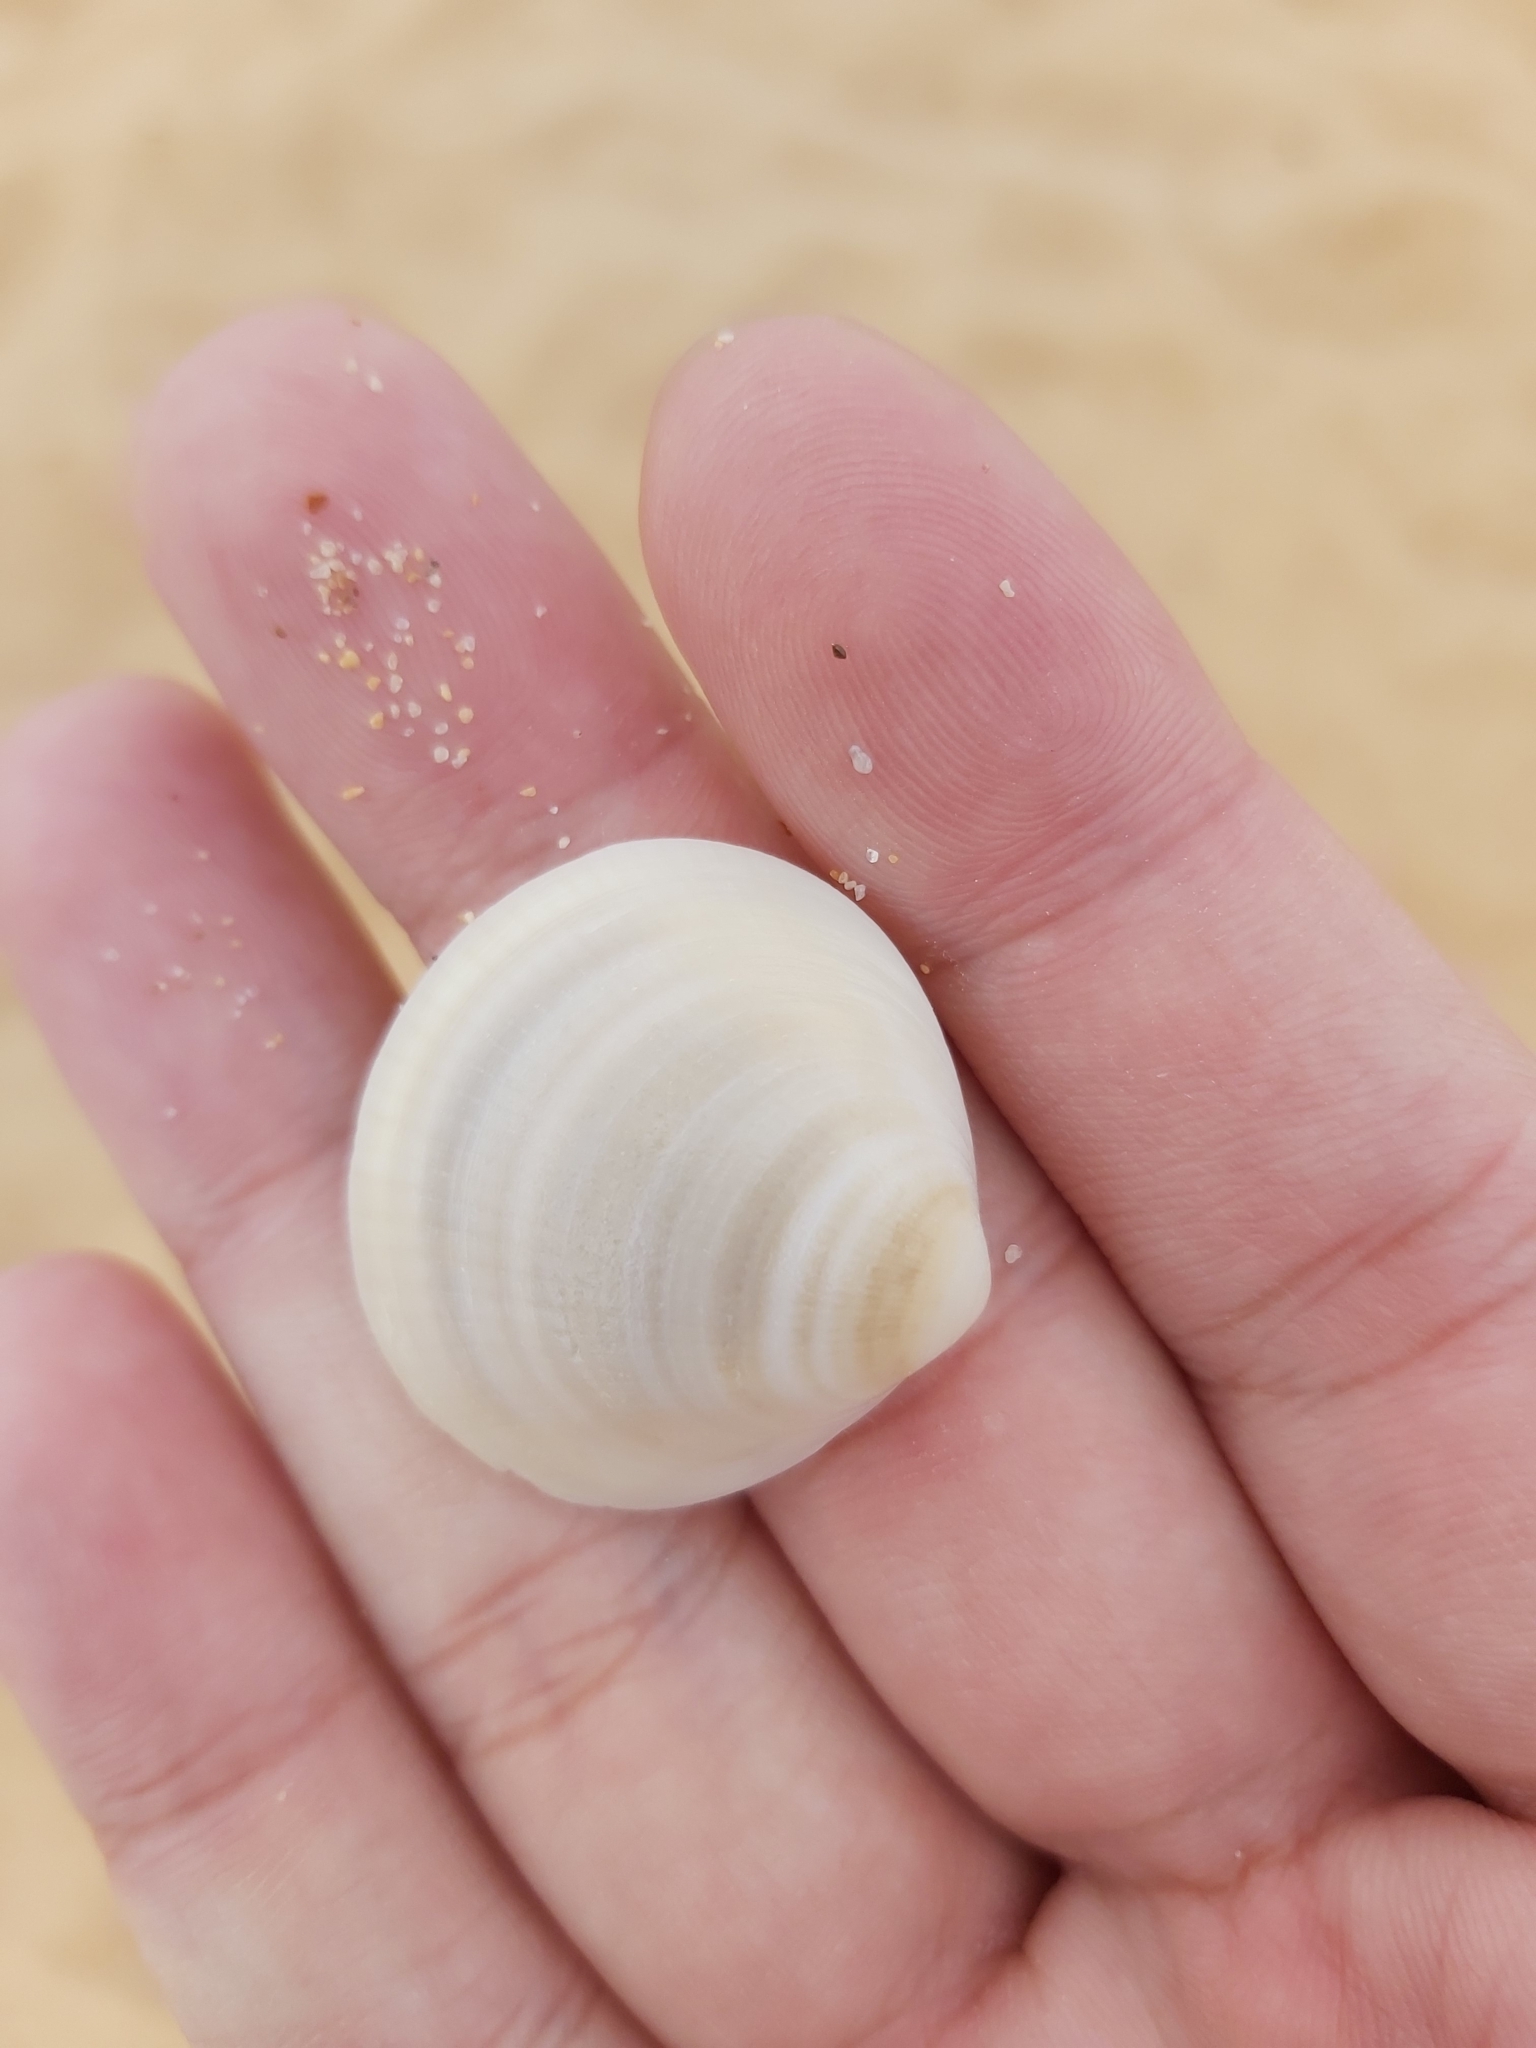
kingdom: Animalia
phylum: Mollusca
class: Bivalvia
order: Arcida
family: Glycymerididae
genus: Glycymeris
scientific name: Glycymeris grayana
